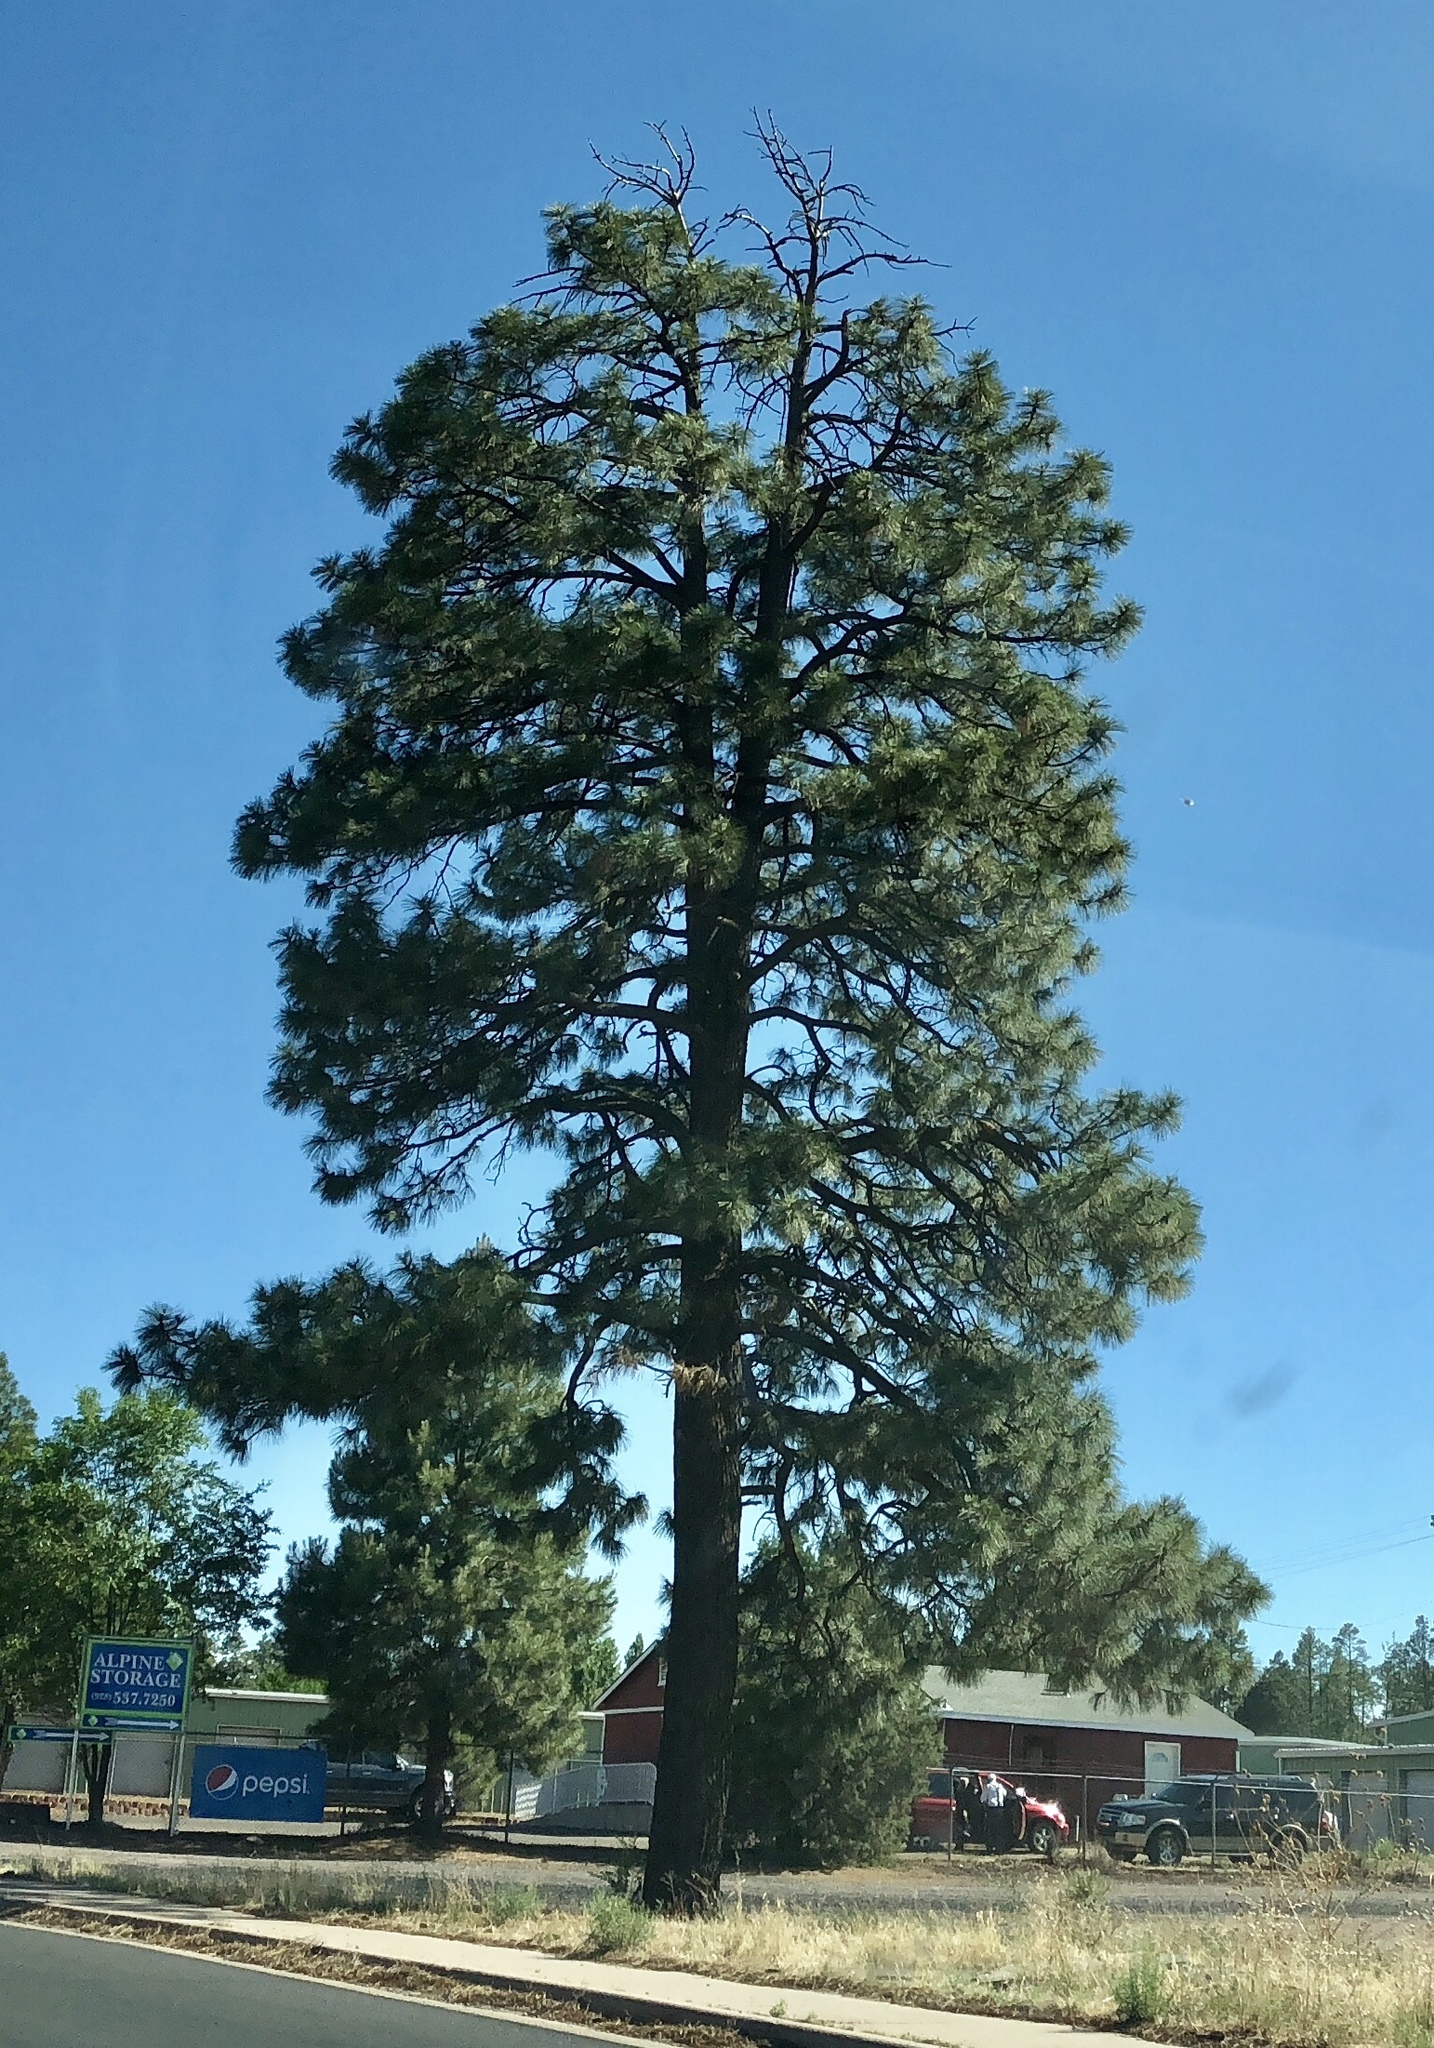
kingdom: Plantae
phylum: Tracheophyta
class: Pinopsida
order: Pinales
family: Pinaceae
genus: Pinus
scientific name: Pinus ponderosa
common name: Western yellow-pine
